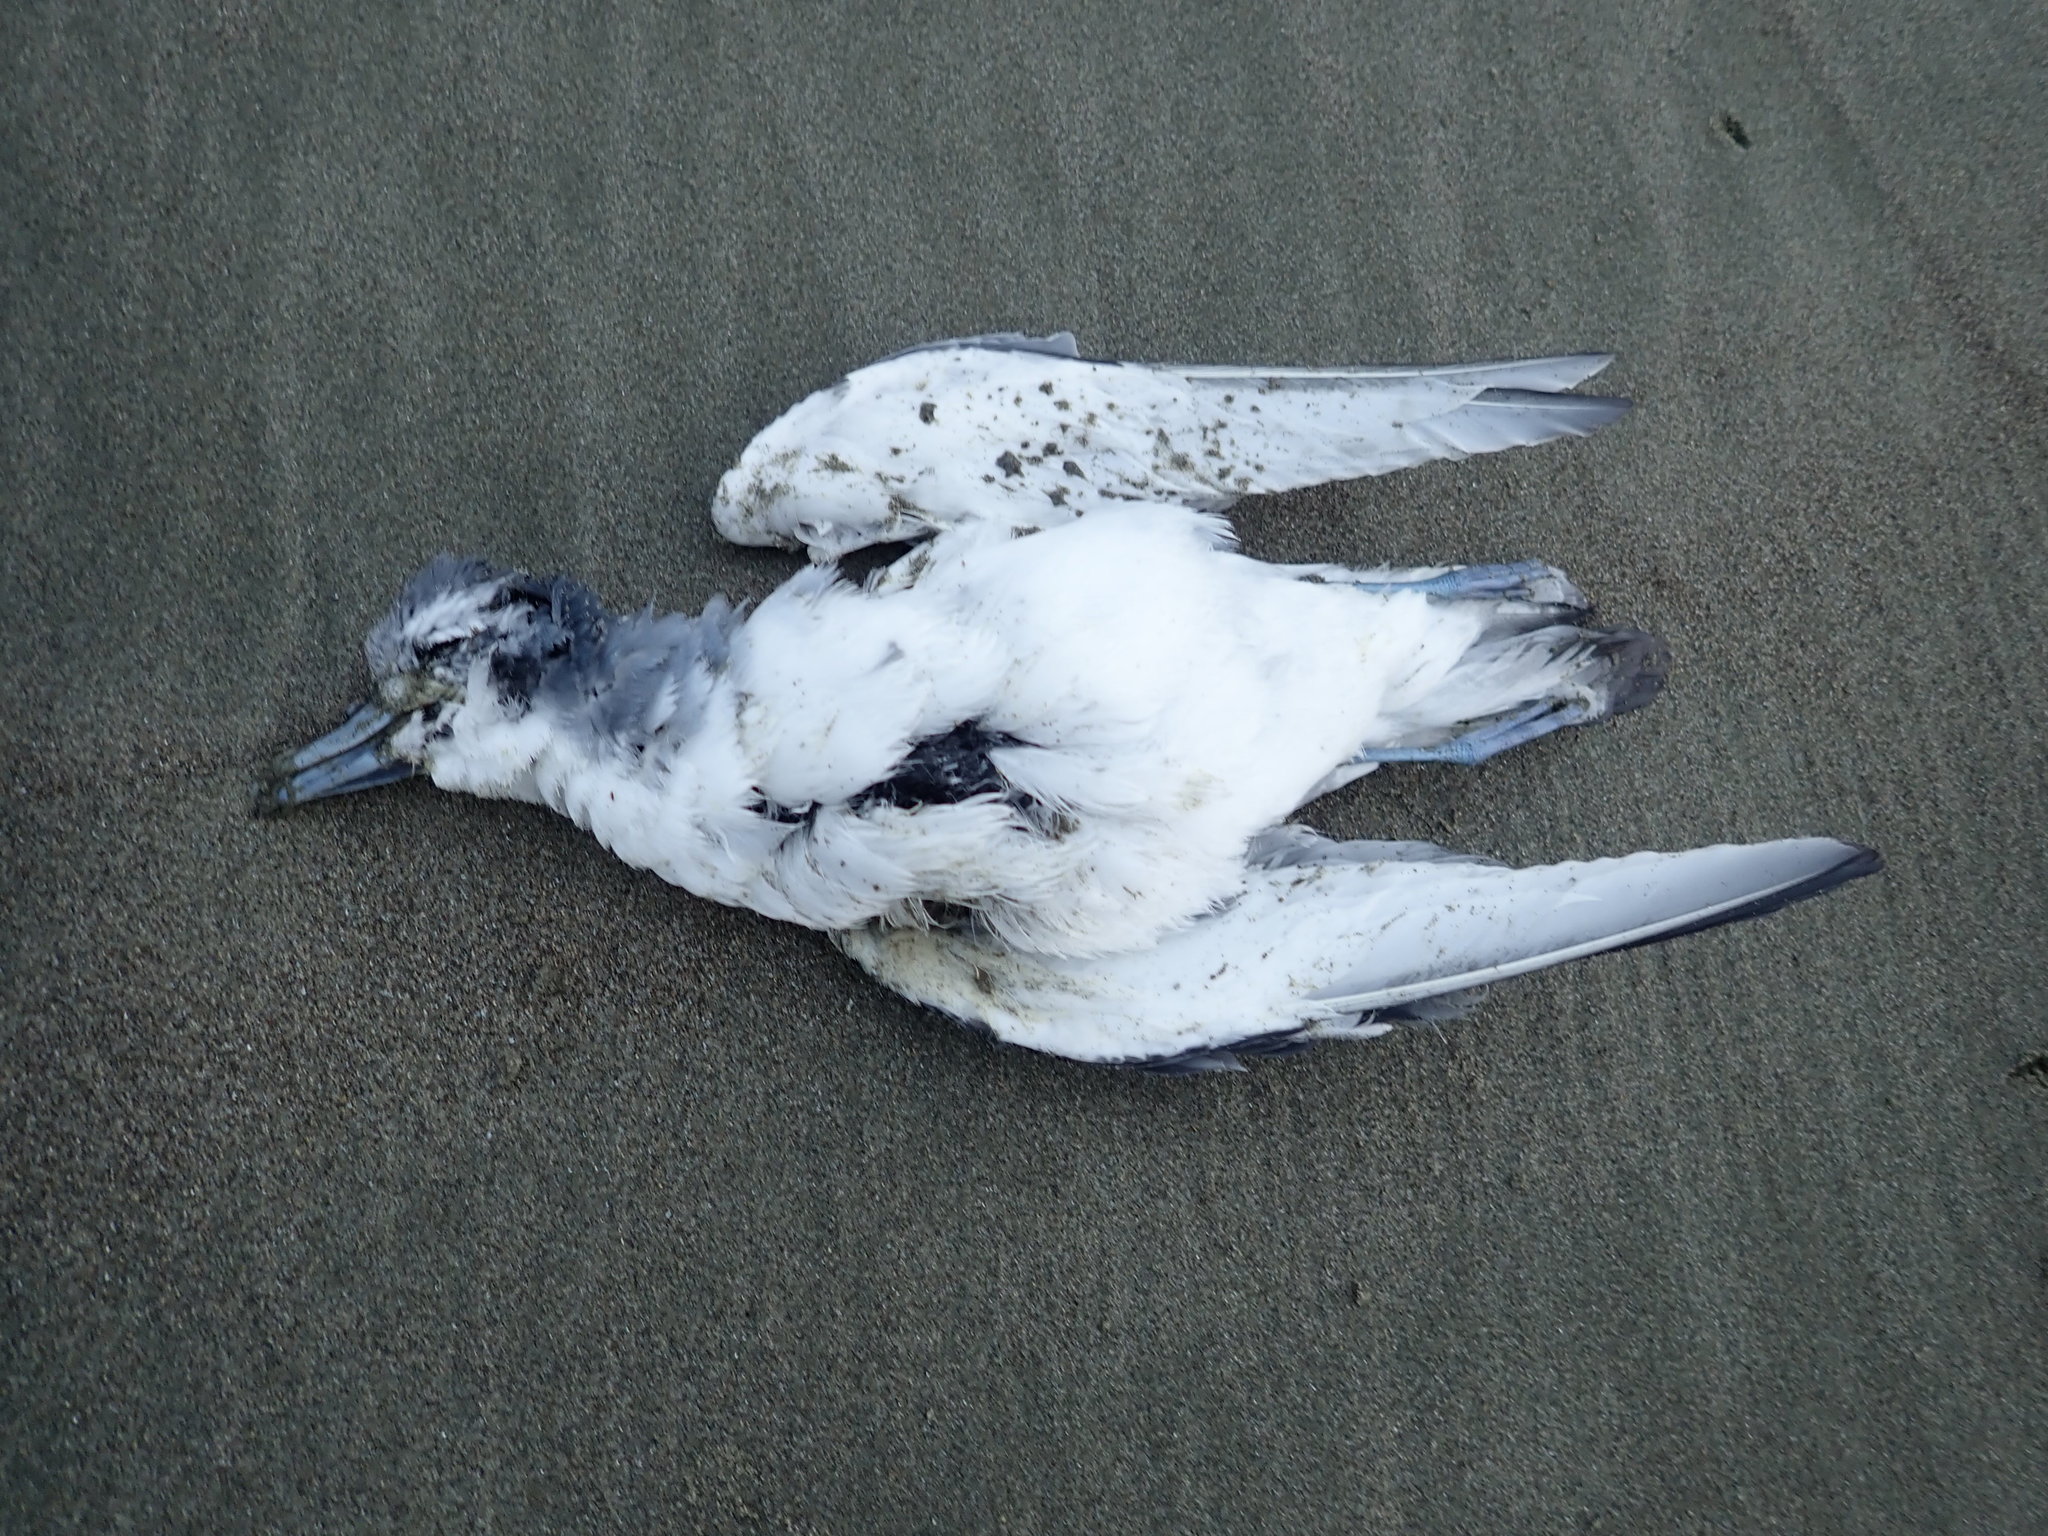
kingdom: Animalia
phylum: Chordata
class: Aves
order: Procellariiformes
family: Procellariidae
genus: Pachyptila
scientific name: Pachyptila turtur
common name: Fairy prion
